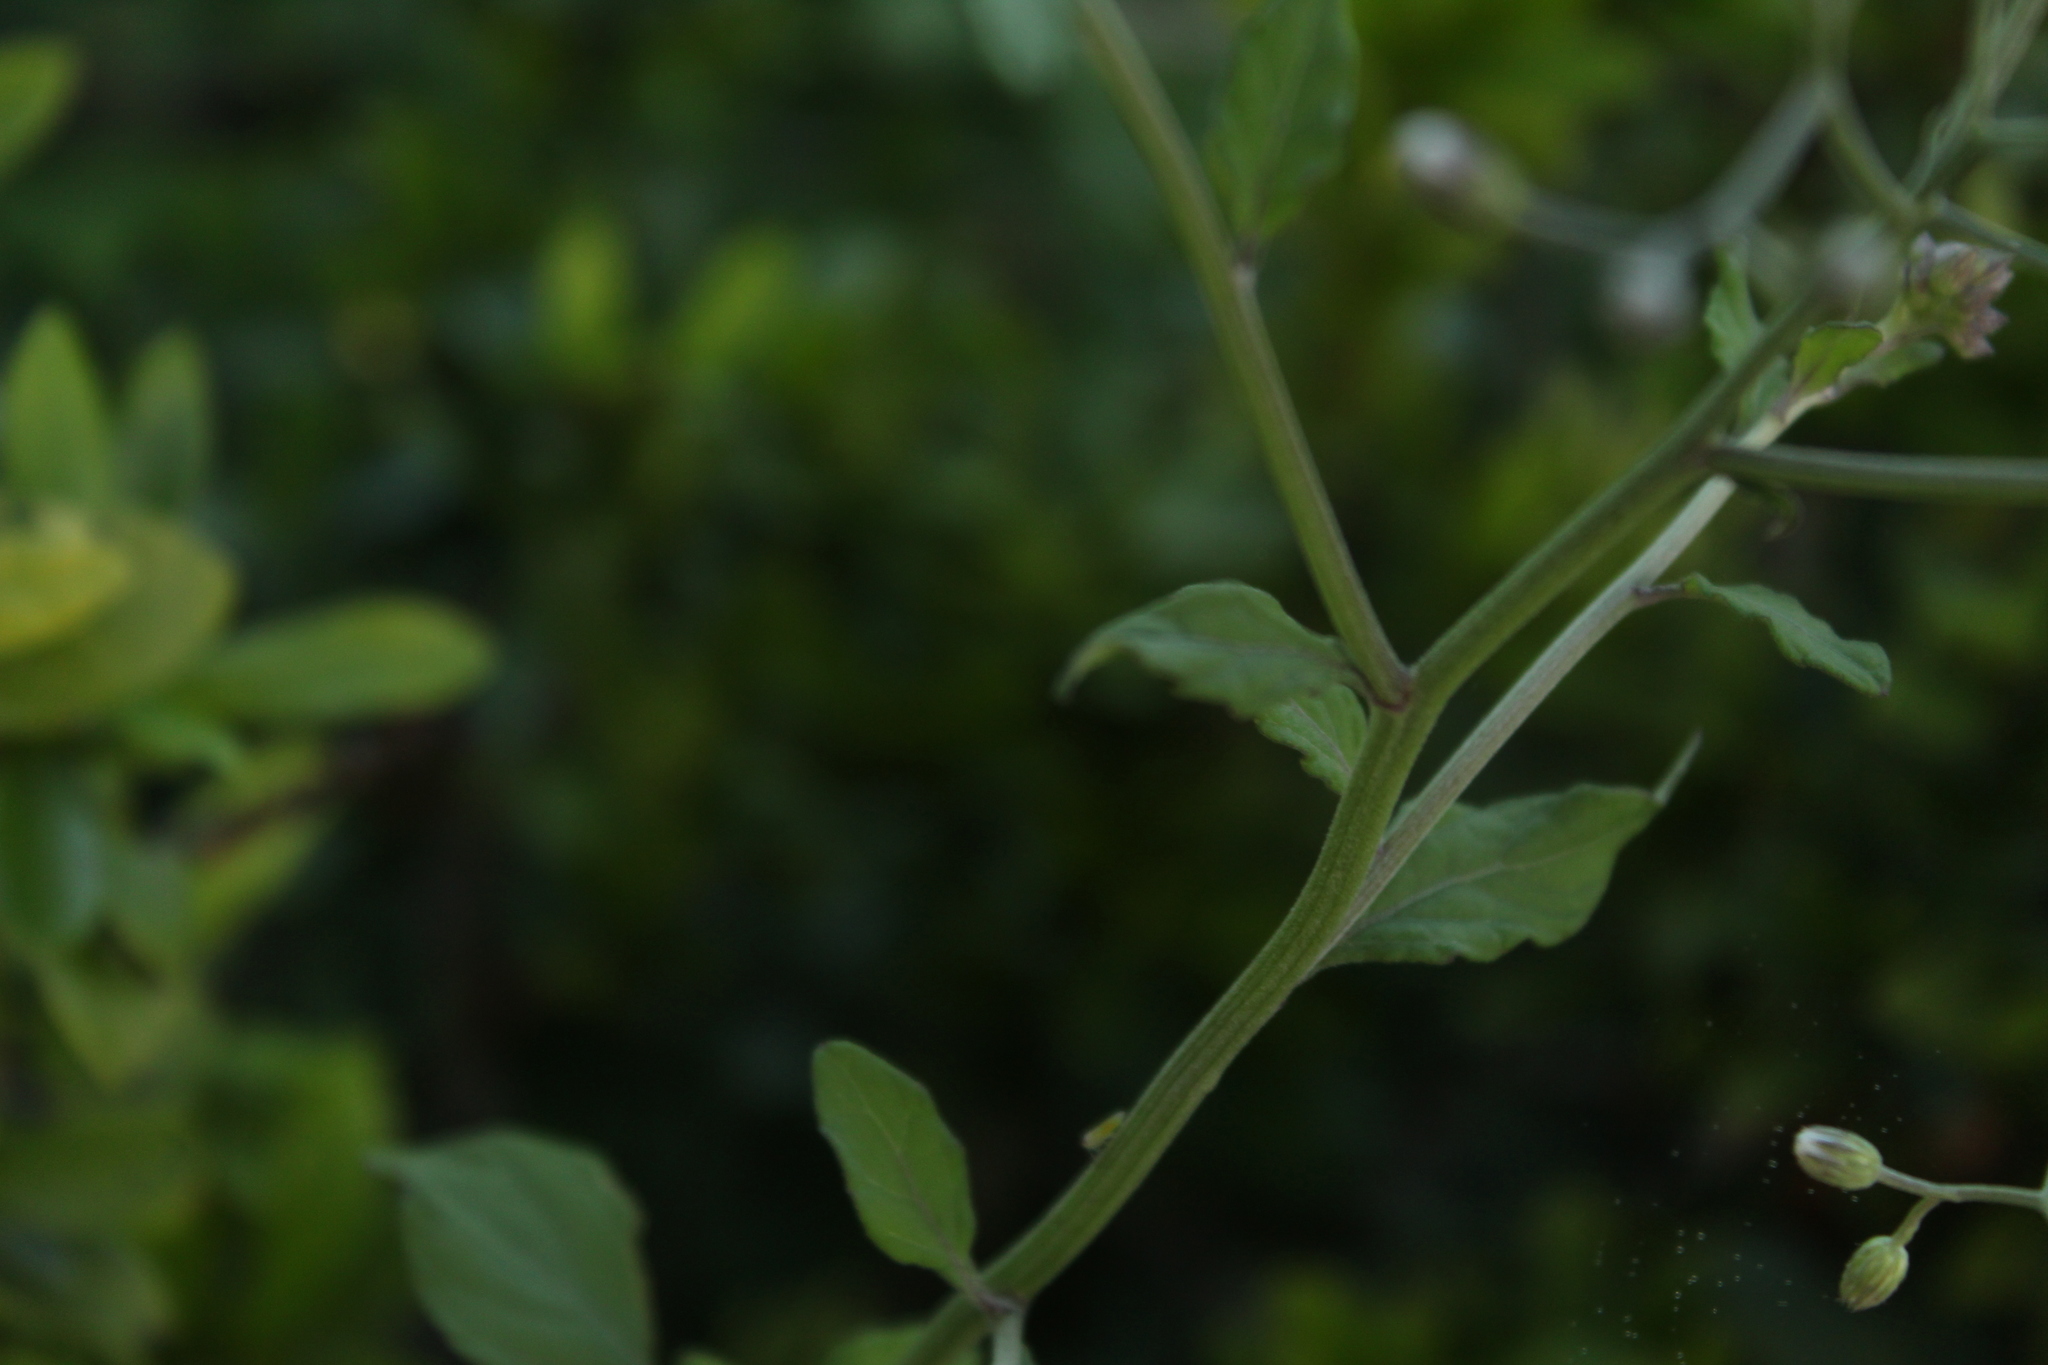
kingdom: Plantae
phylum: Tracheophyta
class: Magnoliopsida
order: Asterales
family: Asteraceae
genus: Cyanthillium
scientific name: Cyanthillium cinereum
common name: Little ironweed
